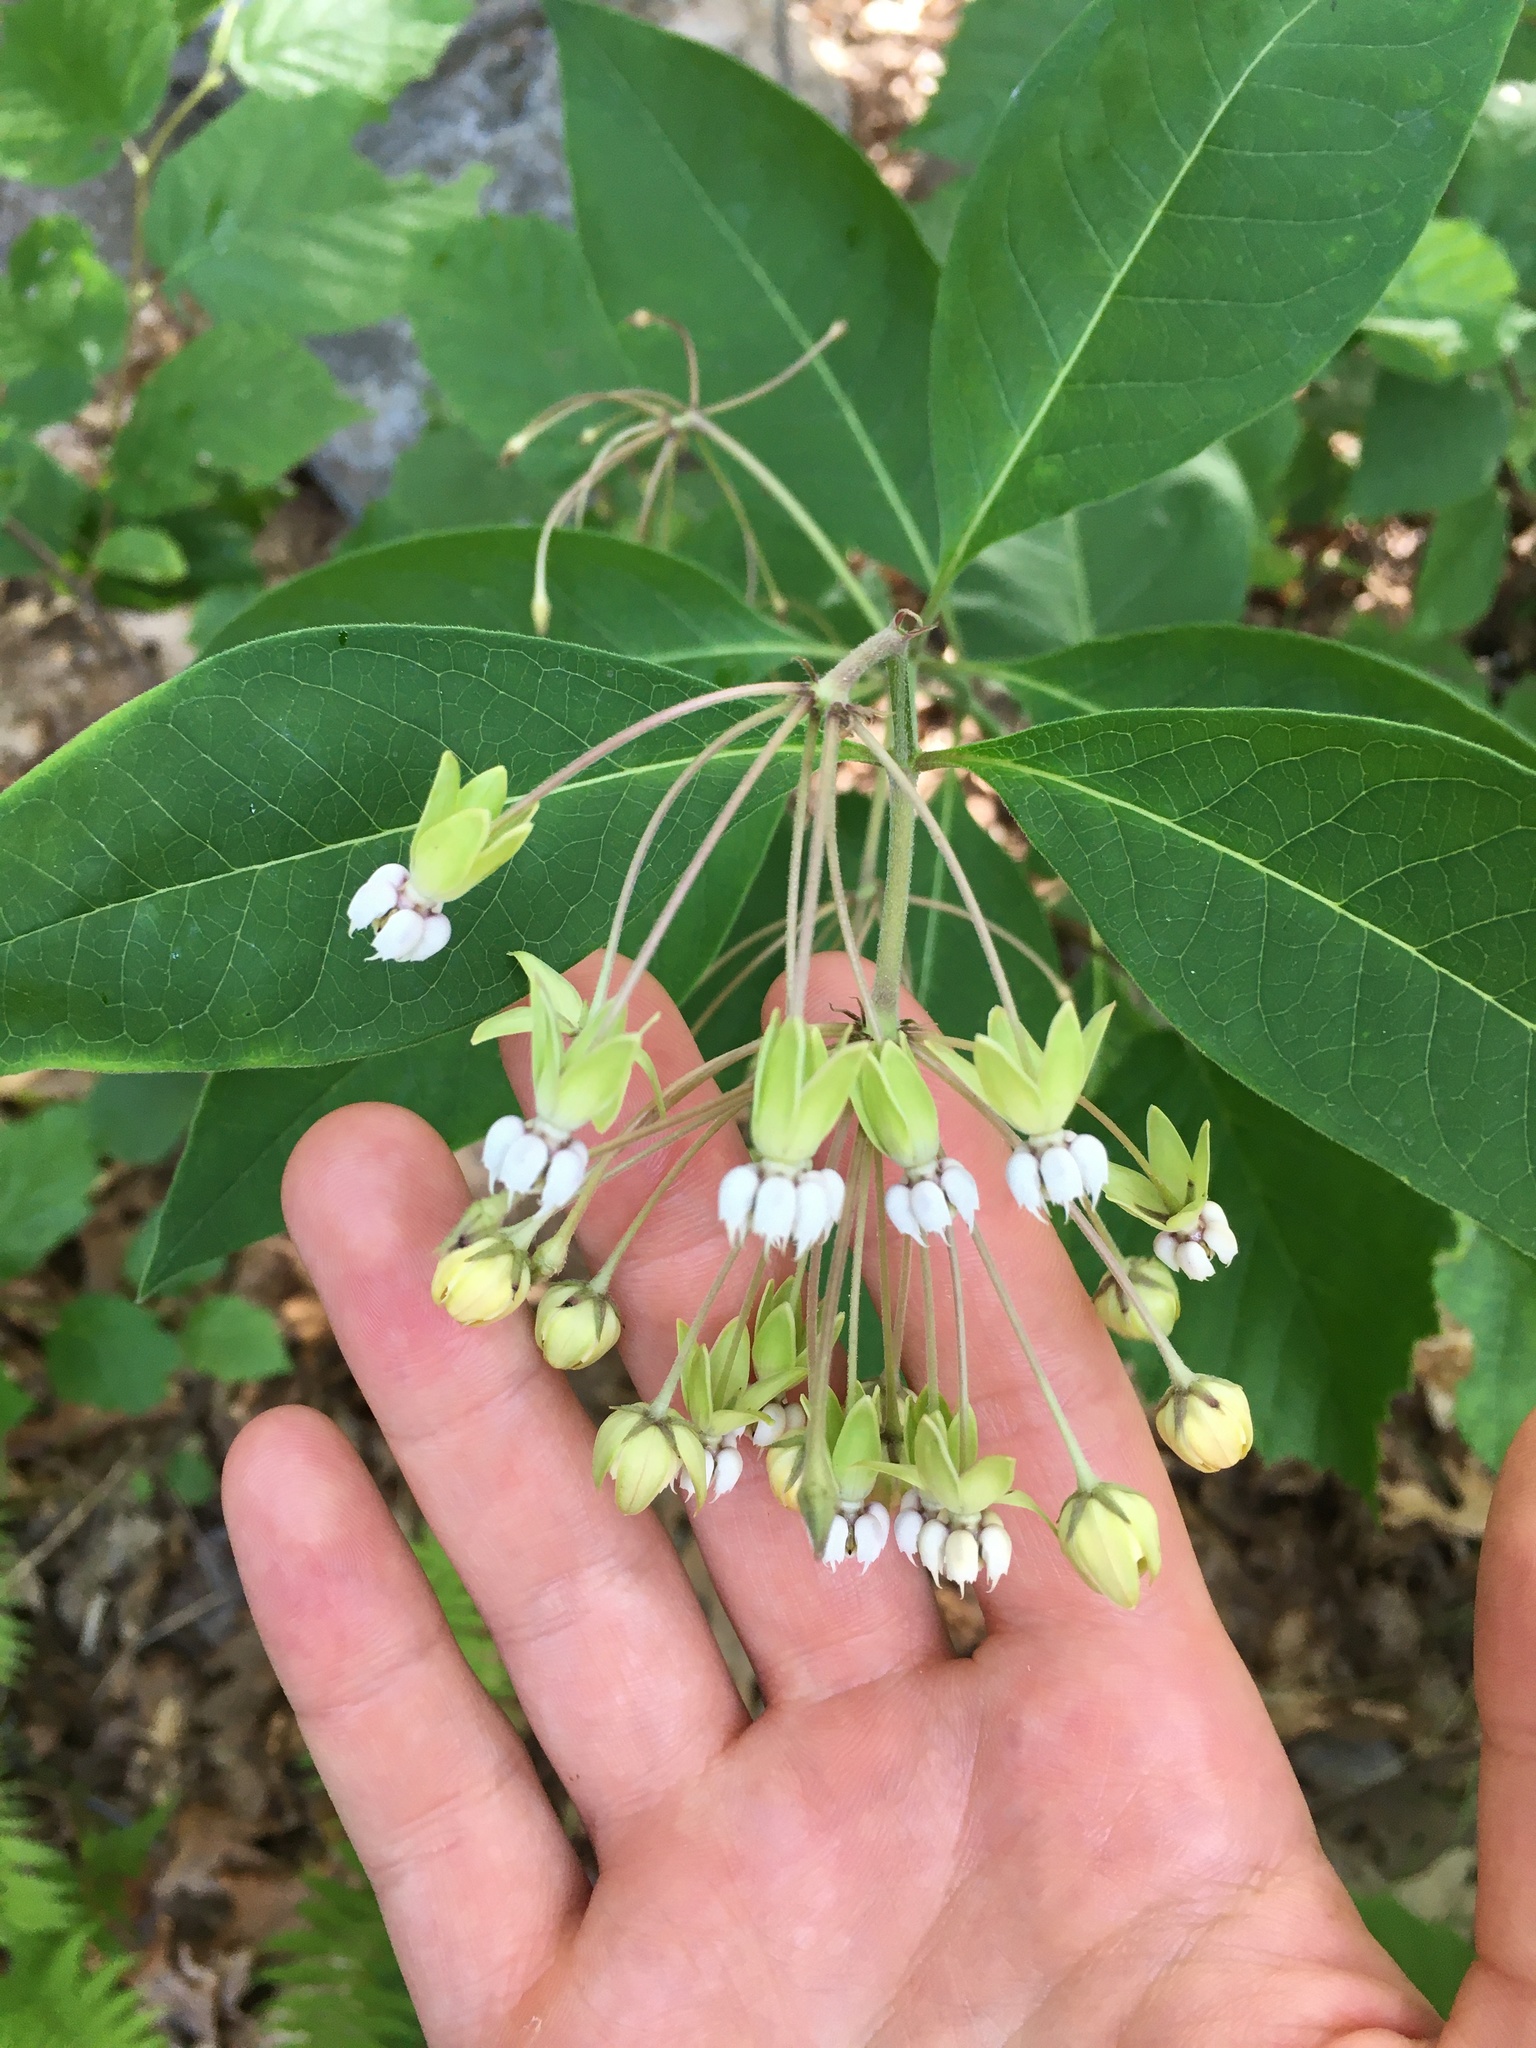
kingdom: Plantae
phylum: Tracheophyta
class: Magnoliopsida
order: Gentianales
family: Apocynaceae
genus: Asclepias
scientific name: Asclepias exaltata
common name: Poke milkweed
